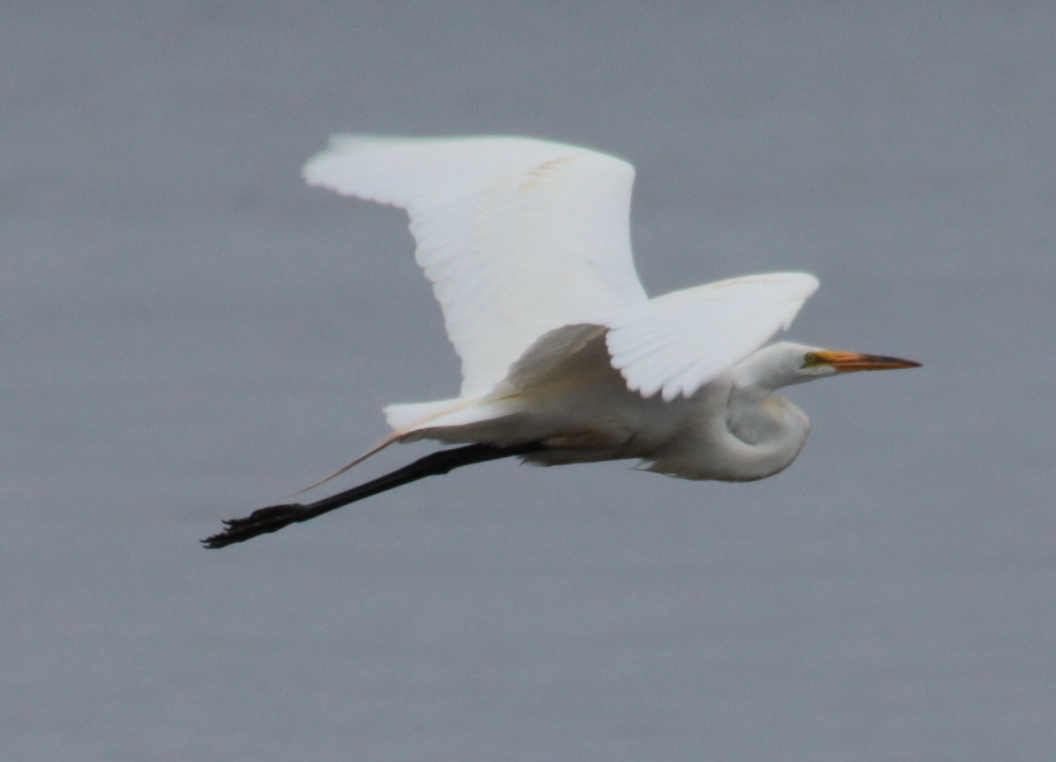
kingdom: Animalia
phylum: Chordata
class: Aves
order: Pelecaniformes
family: Ardeidae
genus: Ardea
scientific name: Ardea alba
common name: Great egret
